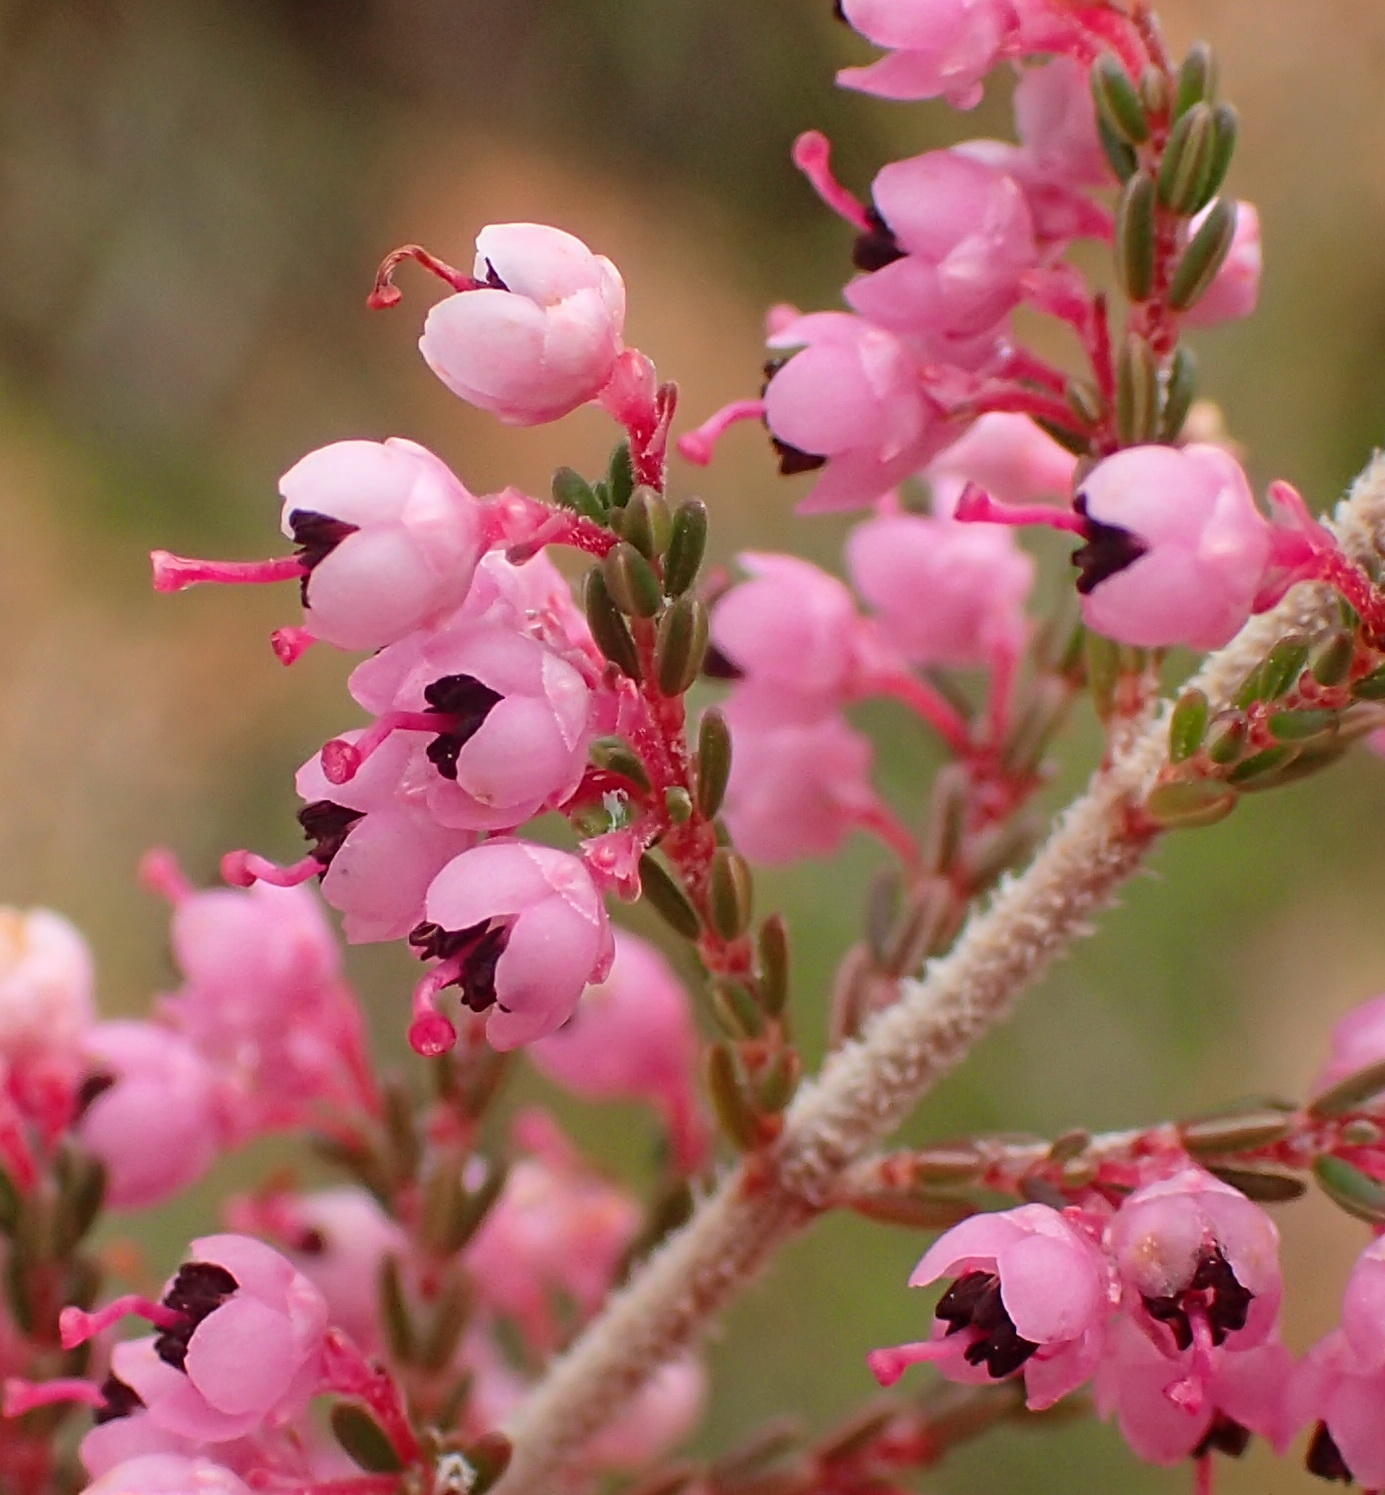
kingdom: Plantae
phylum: Tracheophyta
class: Magnoliopsida
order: Ericales
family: Ericaceae
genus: Erica
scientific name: Erica sparsa
